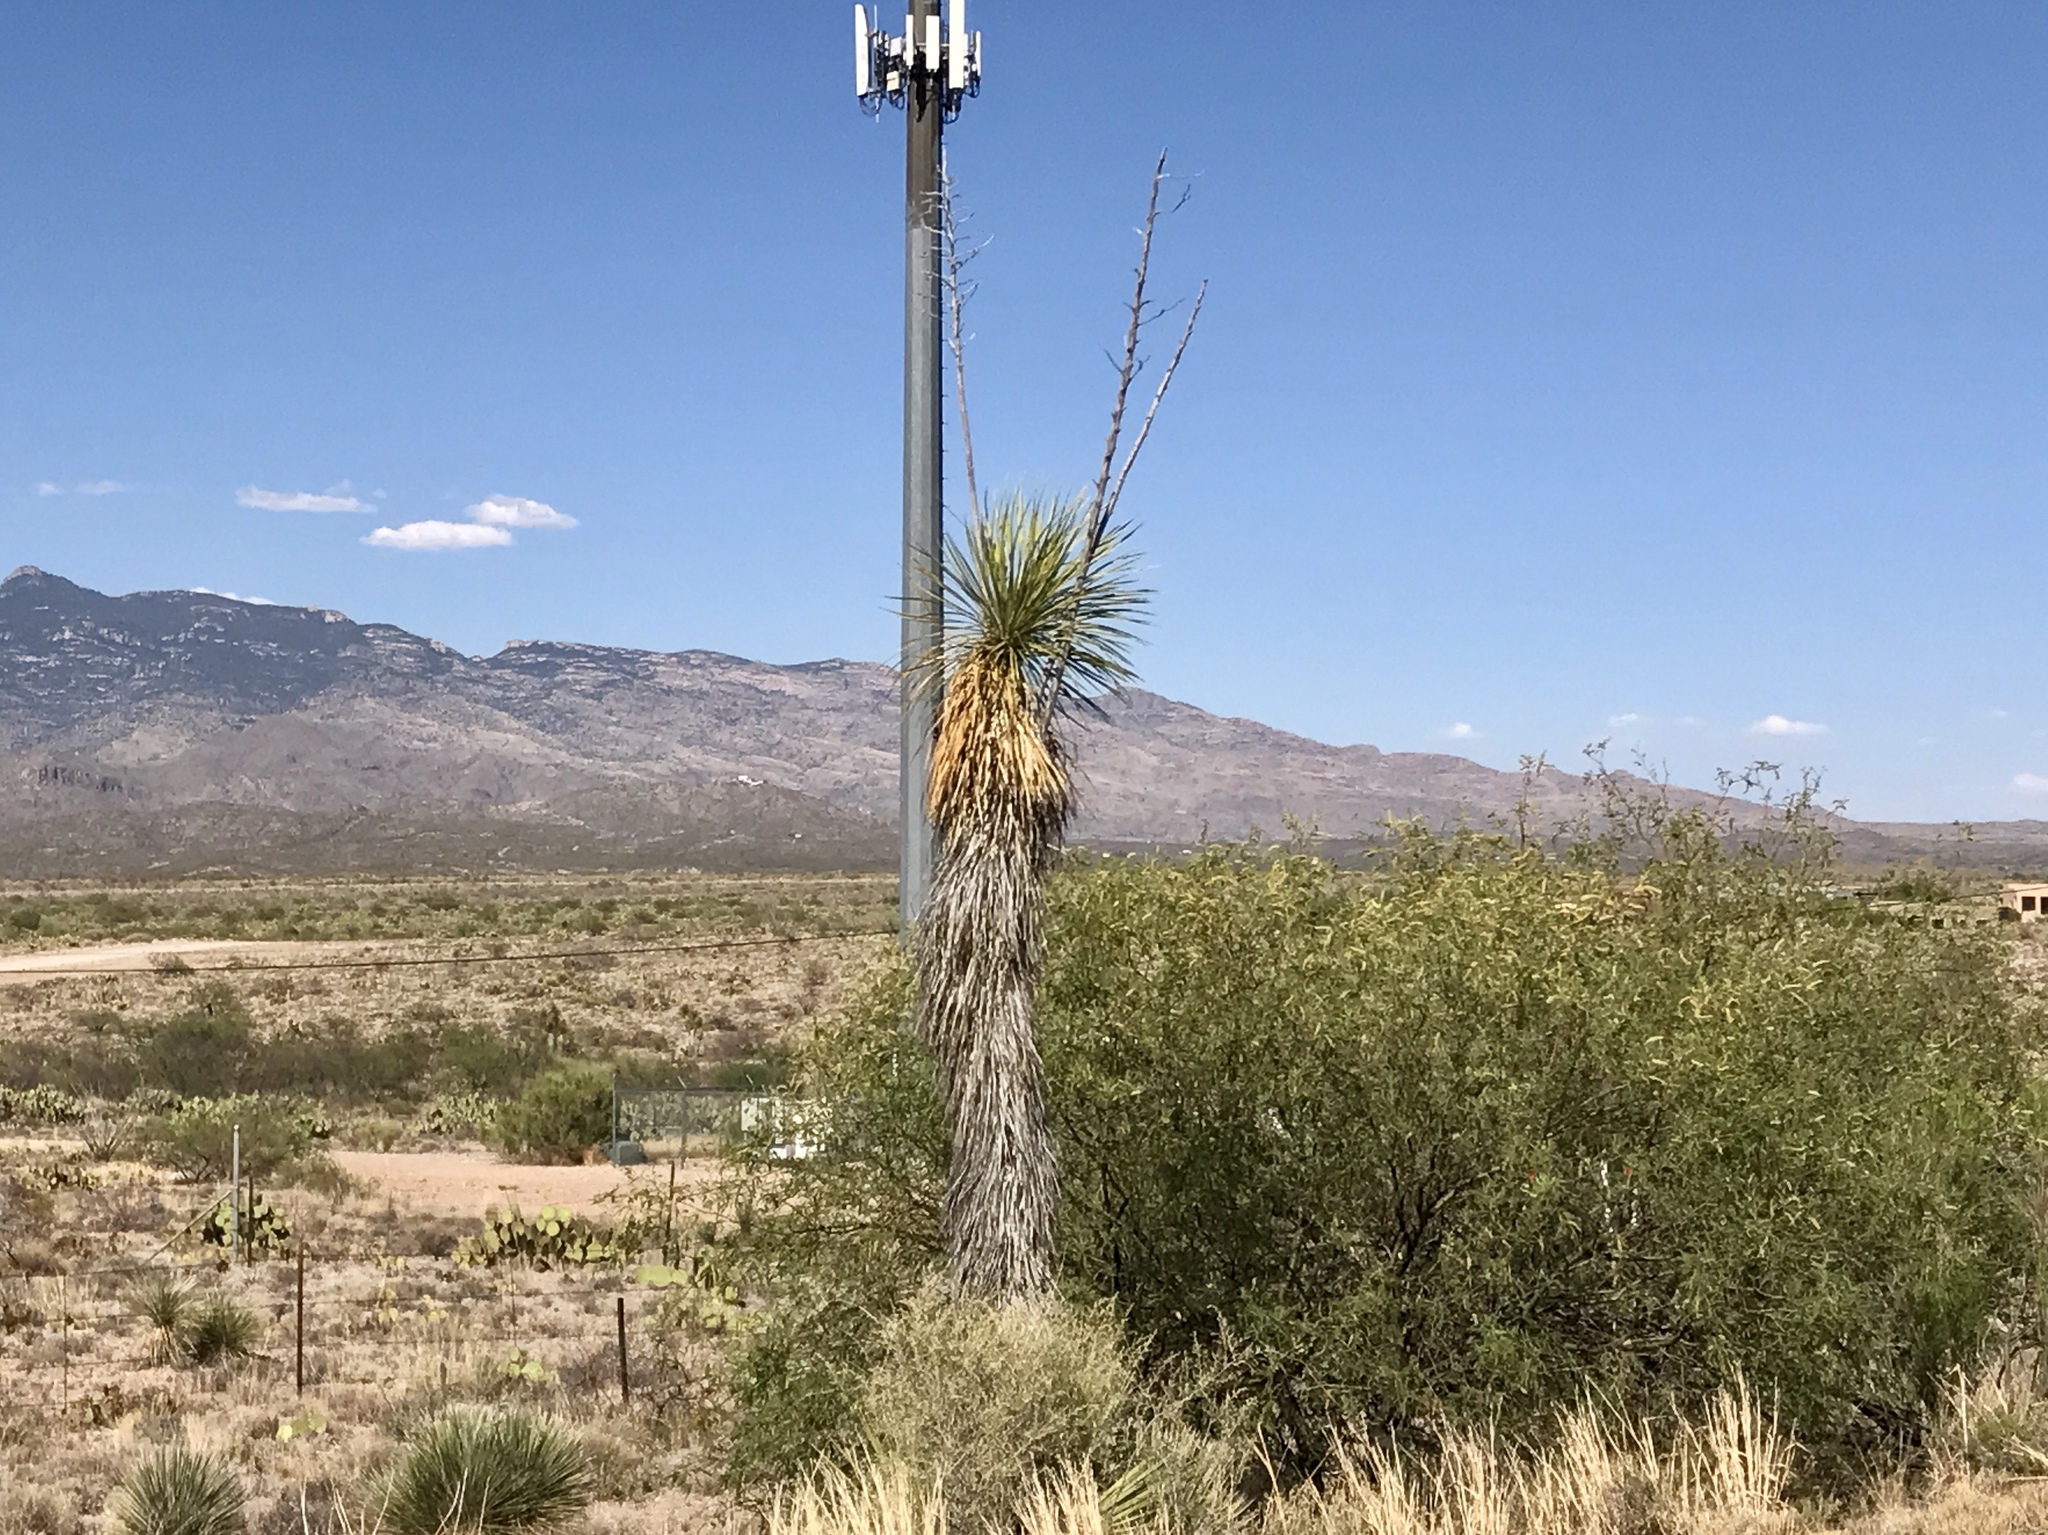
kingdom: Plantae
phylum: Tracheophyta
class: Liliopsida
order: Asparagales
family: Asparagaceae
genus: Yucca
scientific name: Yucca elata
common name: Palmella
